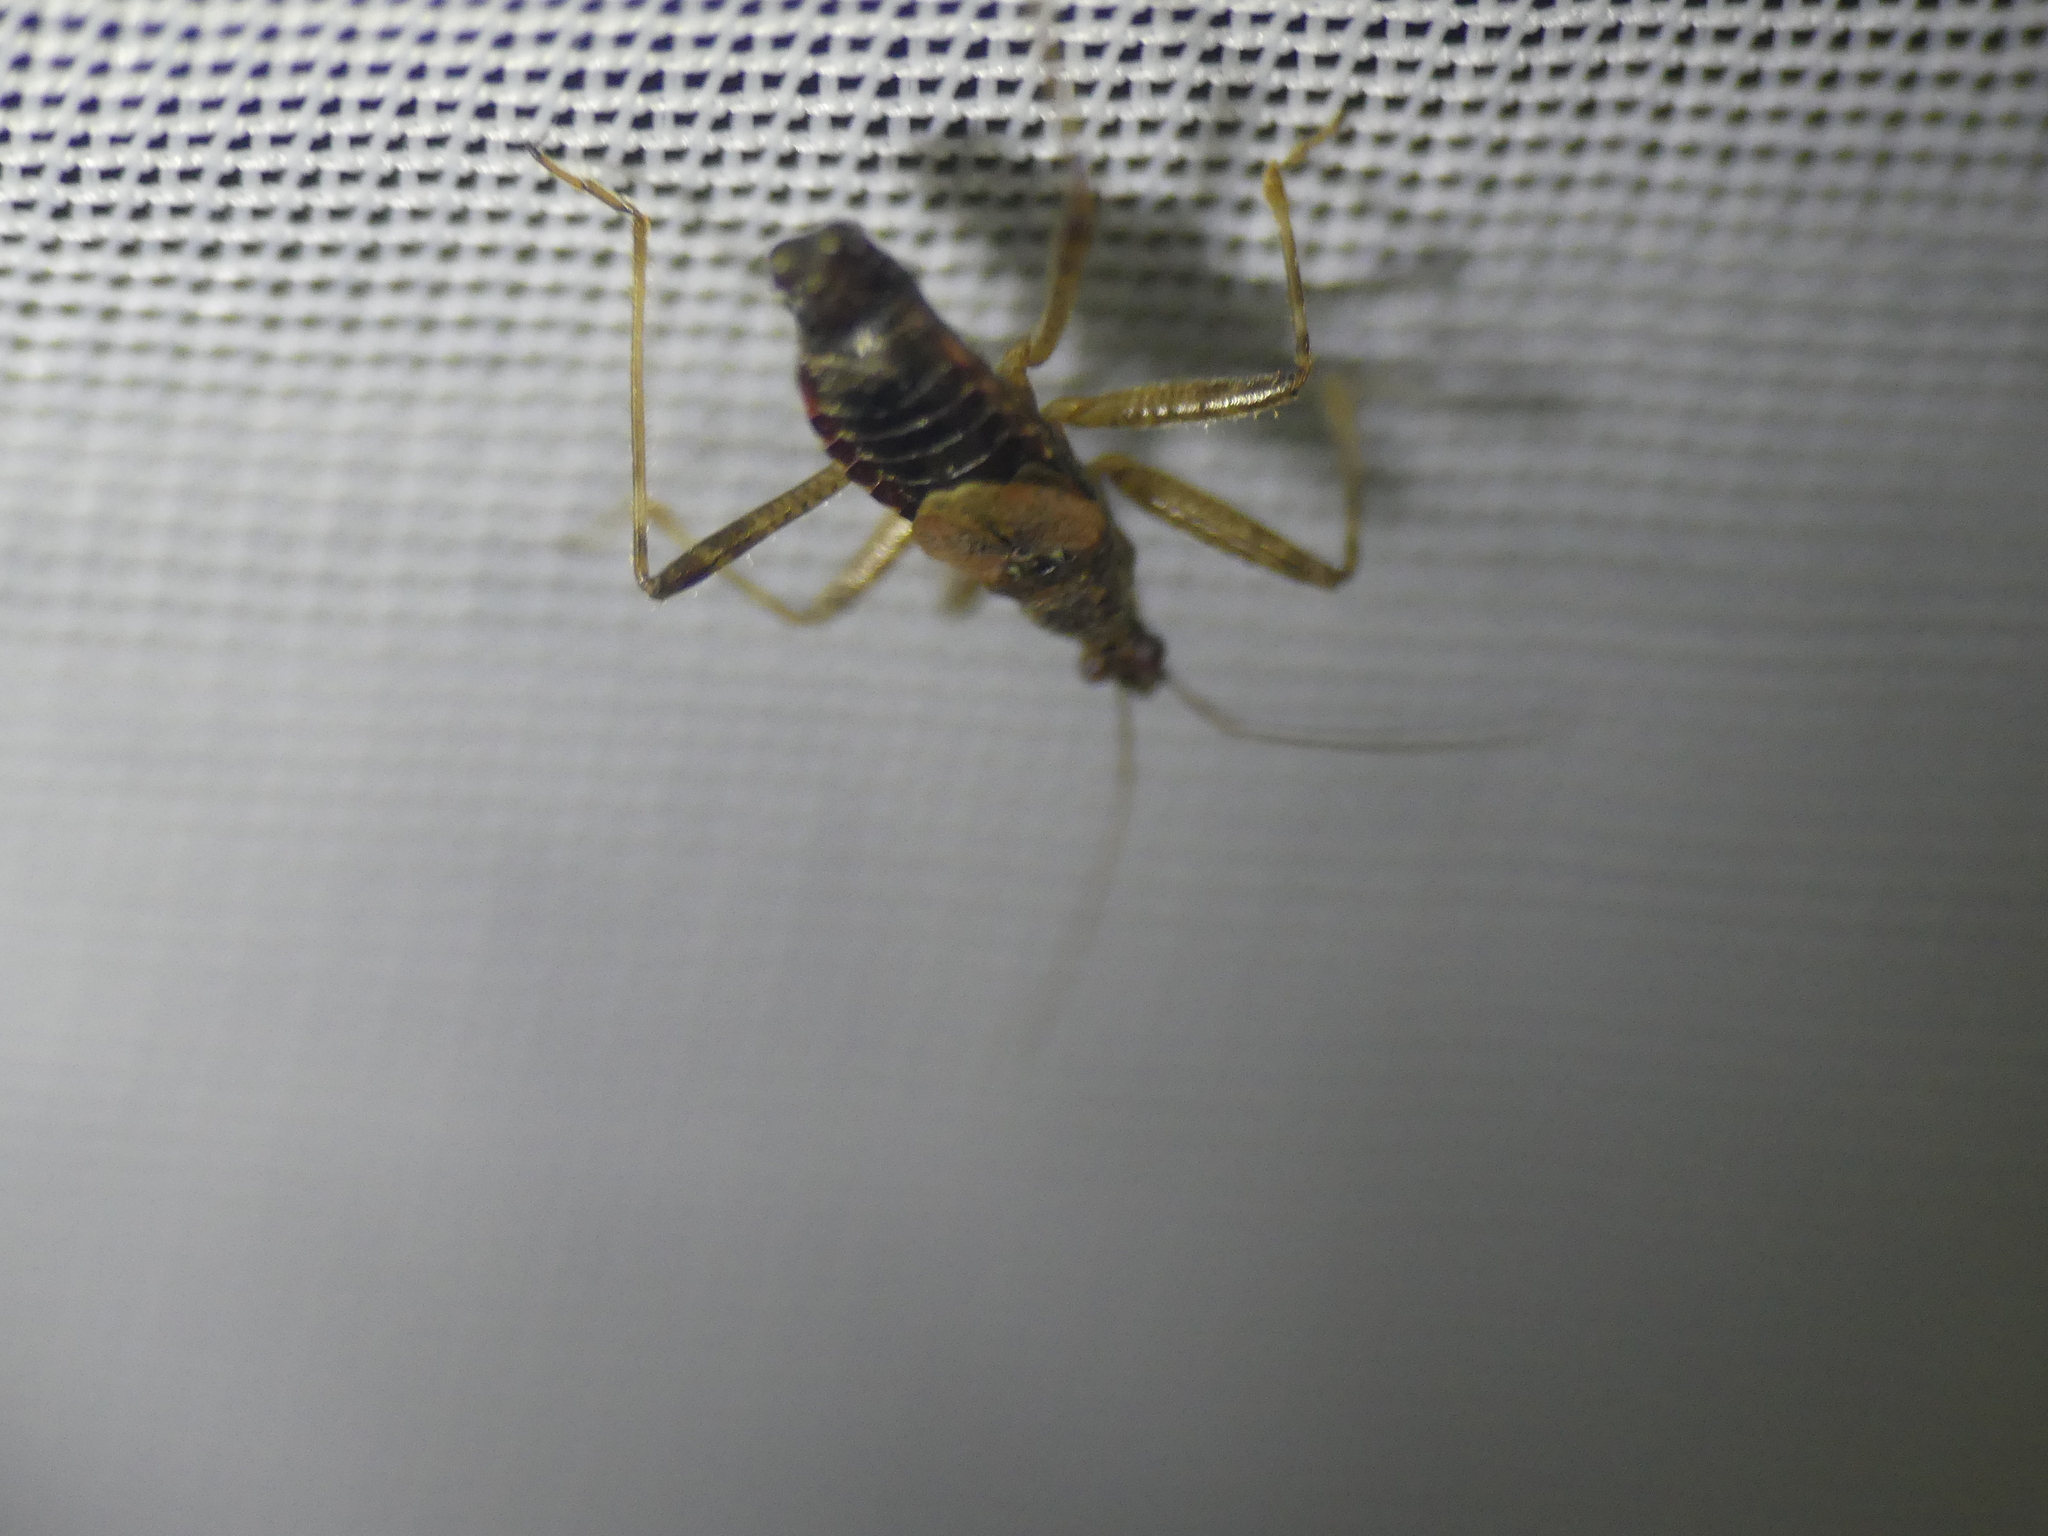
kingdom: Animalia
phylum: Arthropoda
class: Insecta
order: Hemiptera
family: Nabidae
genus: Himacerus
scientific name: Himacerus apterus
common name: Tree damsel bug
